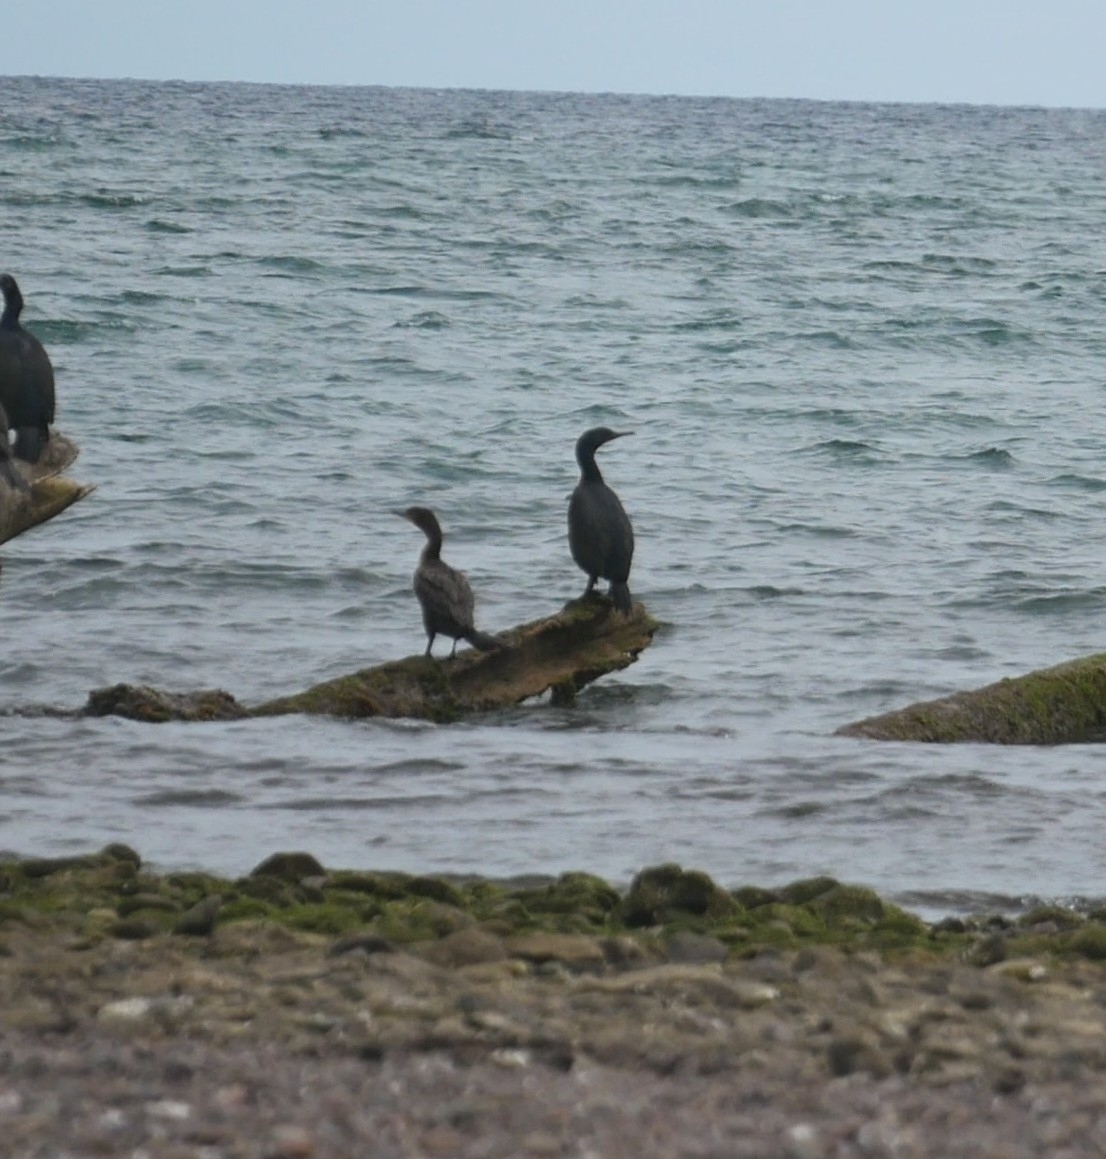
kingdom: Animalia
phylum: Chordata
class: Aves
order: Suliformes
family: Phalacrocoracidae
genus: Urile
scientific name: Urile penicillatus
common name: Brandt's cormorant
